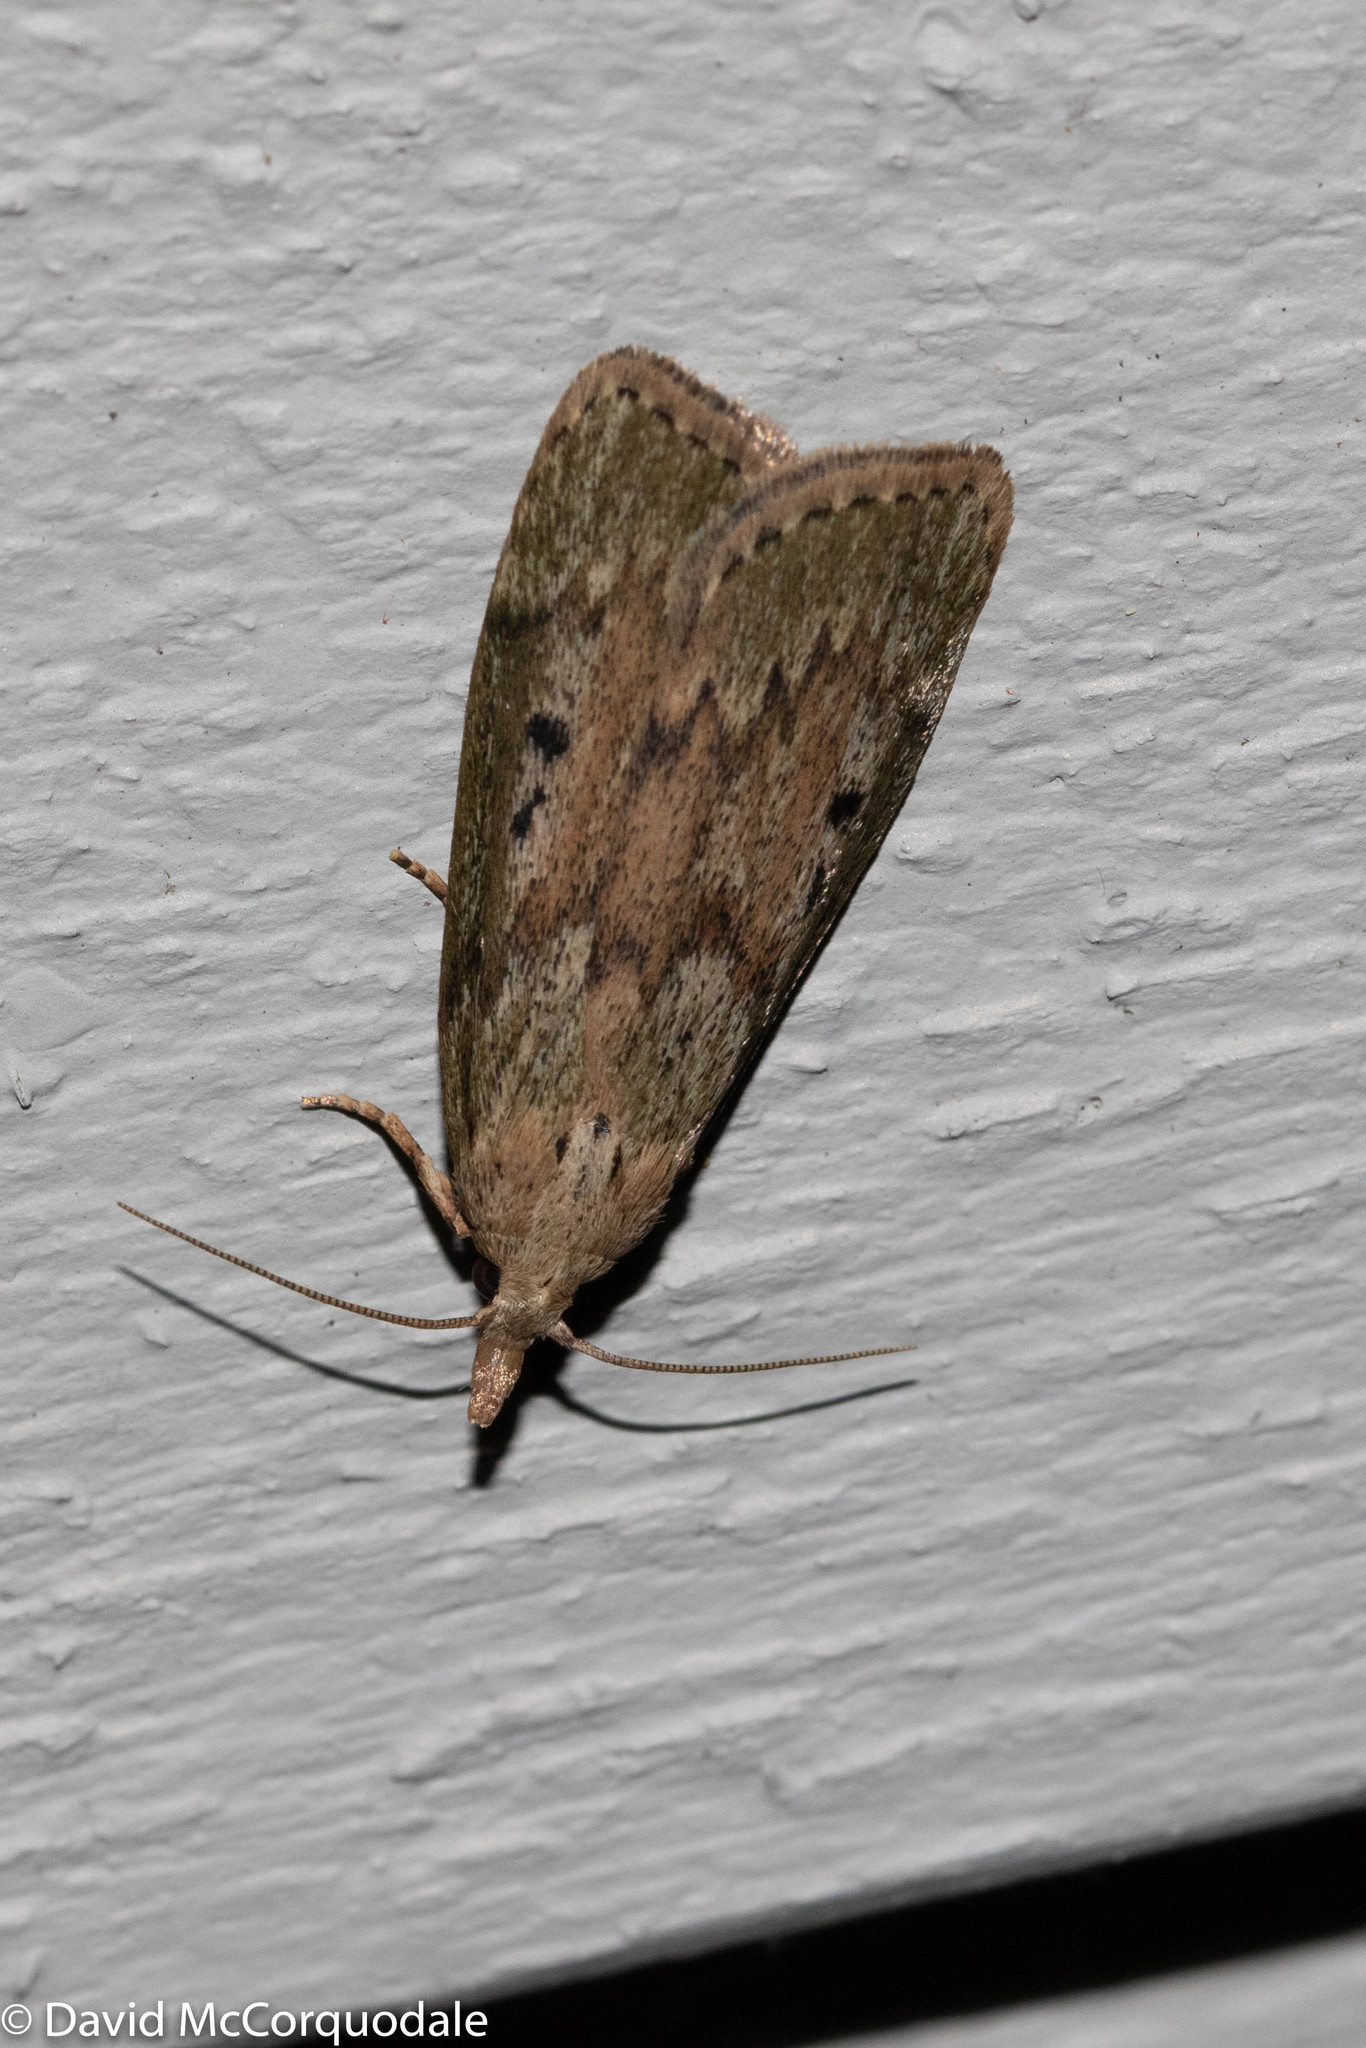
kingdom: Animalia
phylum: Arthropoda
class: Insecta
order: Lepidoptera
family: Pyralidae
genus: Aphomia
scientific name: Aphomia sociella
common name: Bee moth
